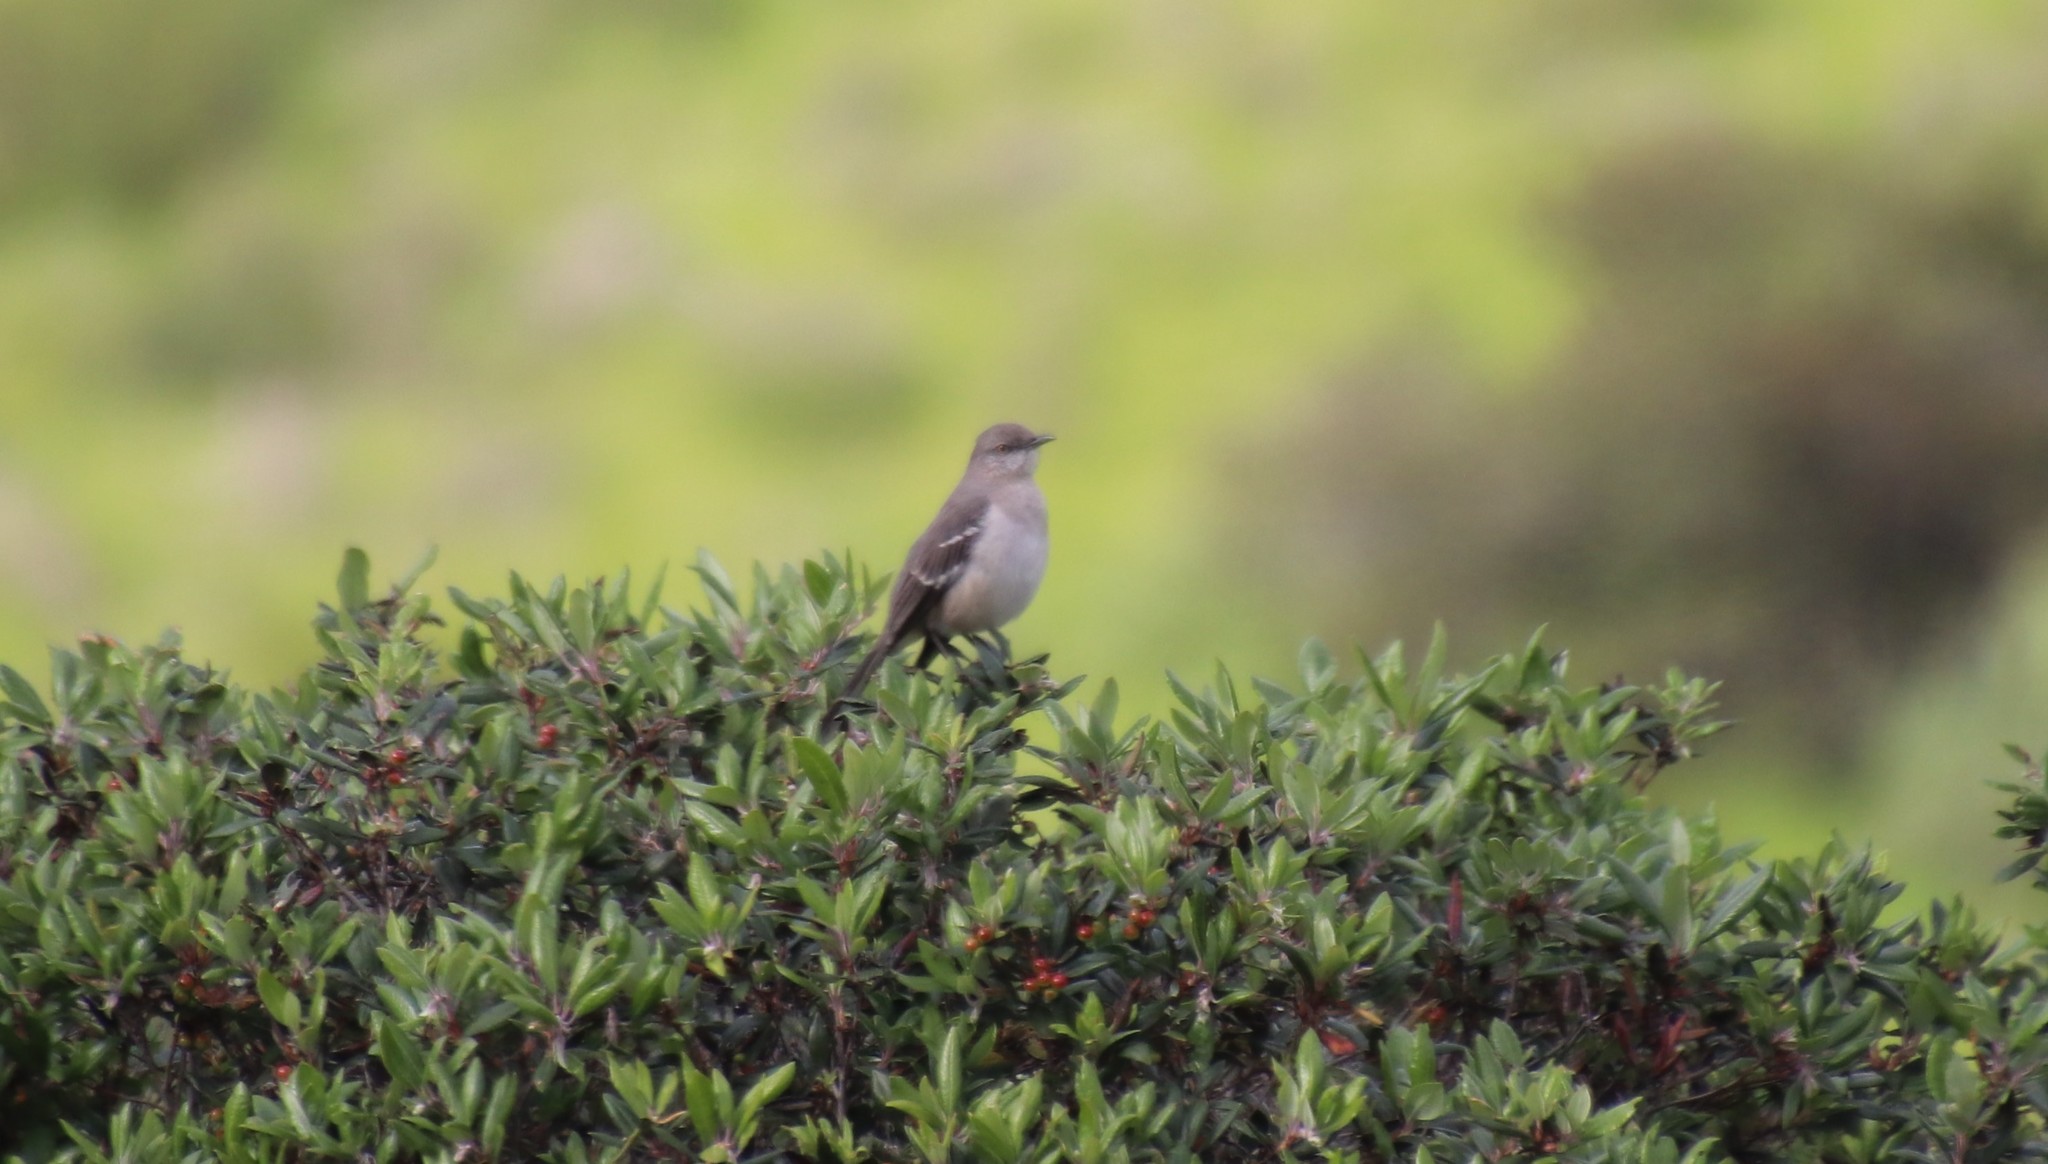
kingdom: Animalia
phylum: Chordata
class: Aves
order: Passeriformes
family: Mimidae
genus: Mimus
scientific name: Mimus polyglottos
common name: Northern mockingbird
